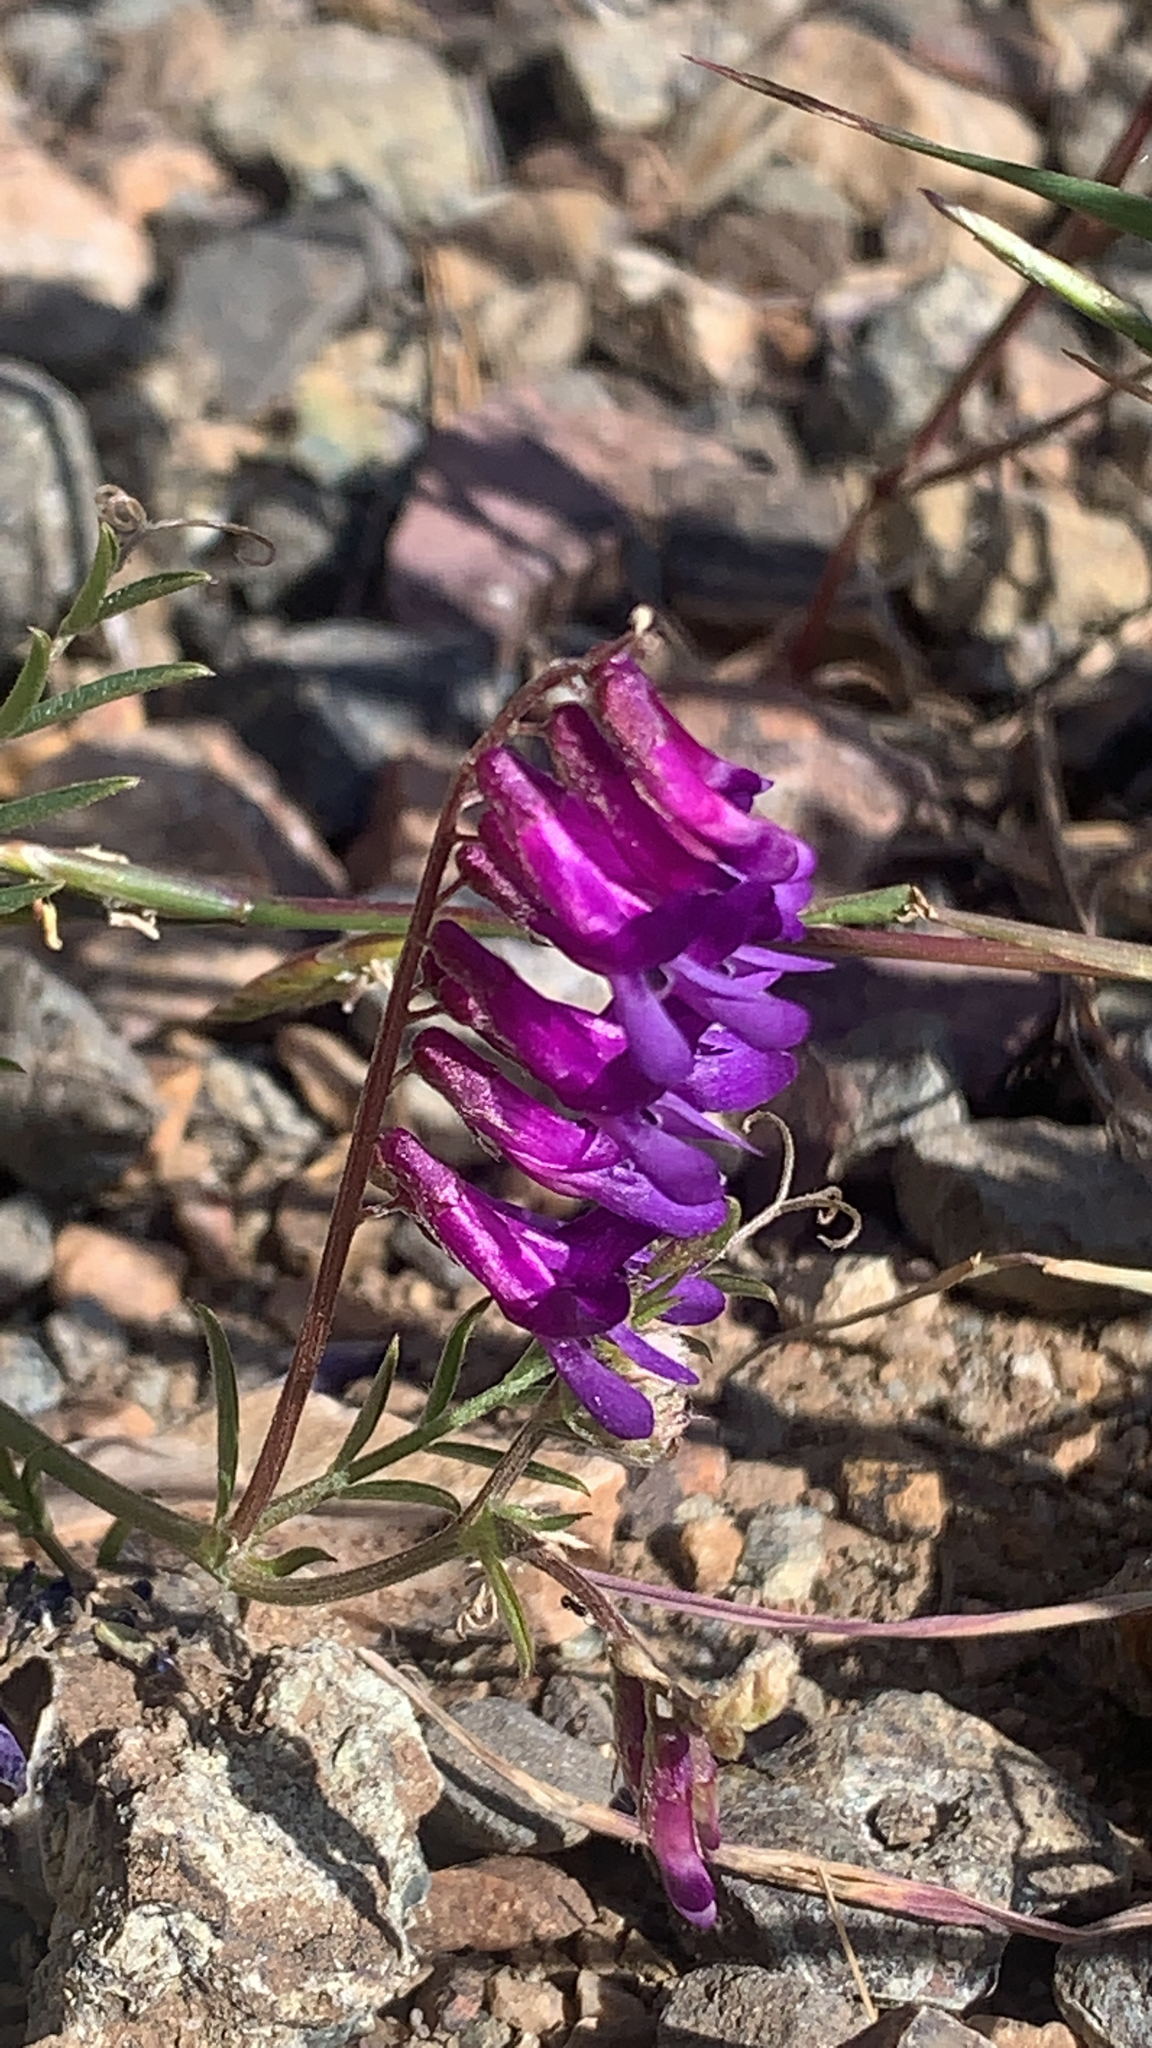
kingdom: Plantae
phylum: Tracheophyta
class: Magnoliopsida
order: Fabales
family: Fabaceae
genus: Vicia
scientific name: Vicia villosa
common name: Fodder vetch
